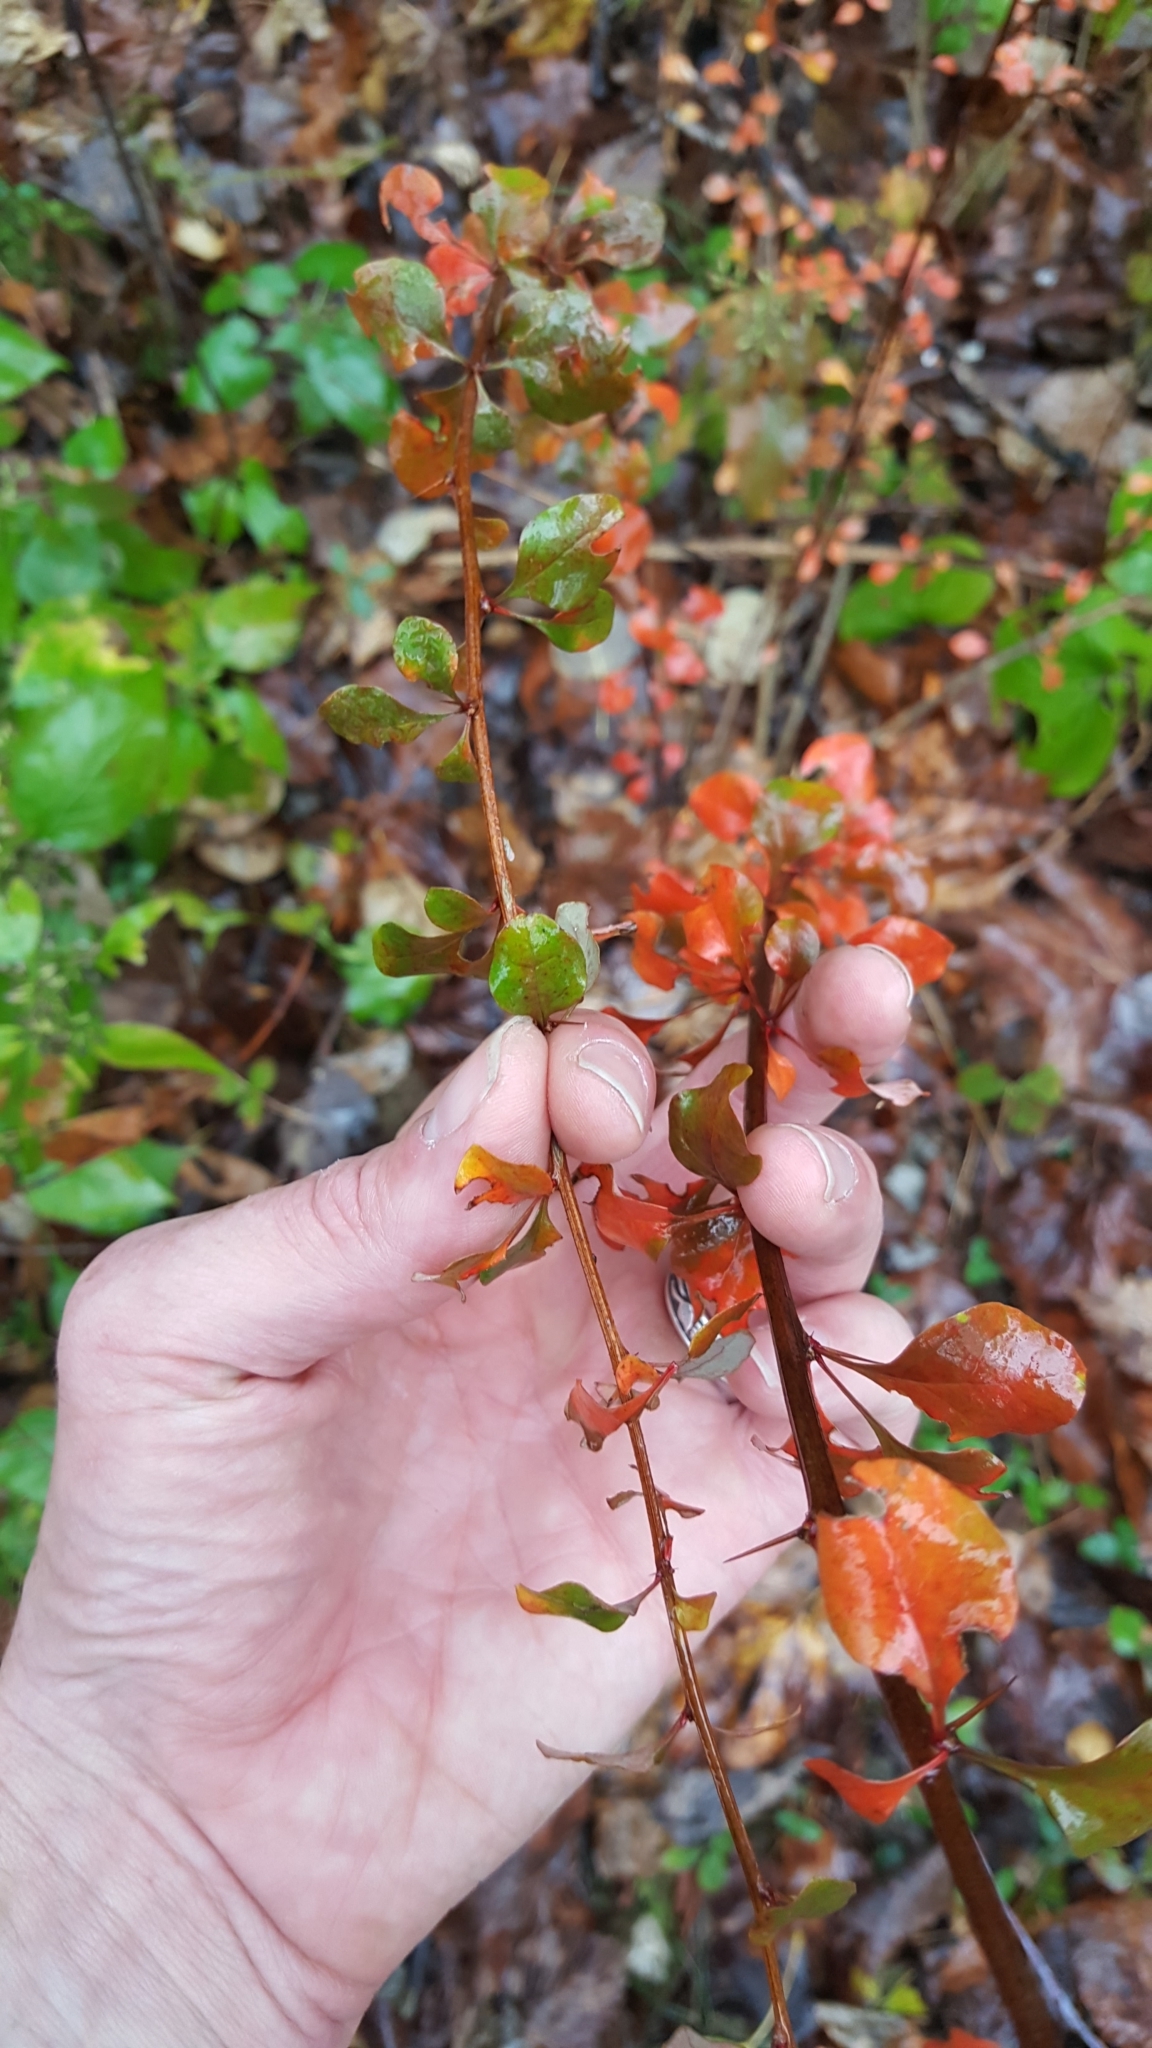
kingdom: Plantae
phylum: Tracheophyta
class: Magnoliopsida
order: Ranunculales
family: Berberidaceae
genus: Berberis
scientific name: Berberis thunbergii
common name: Japanese barberry
